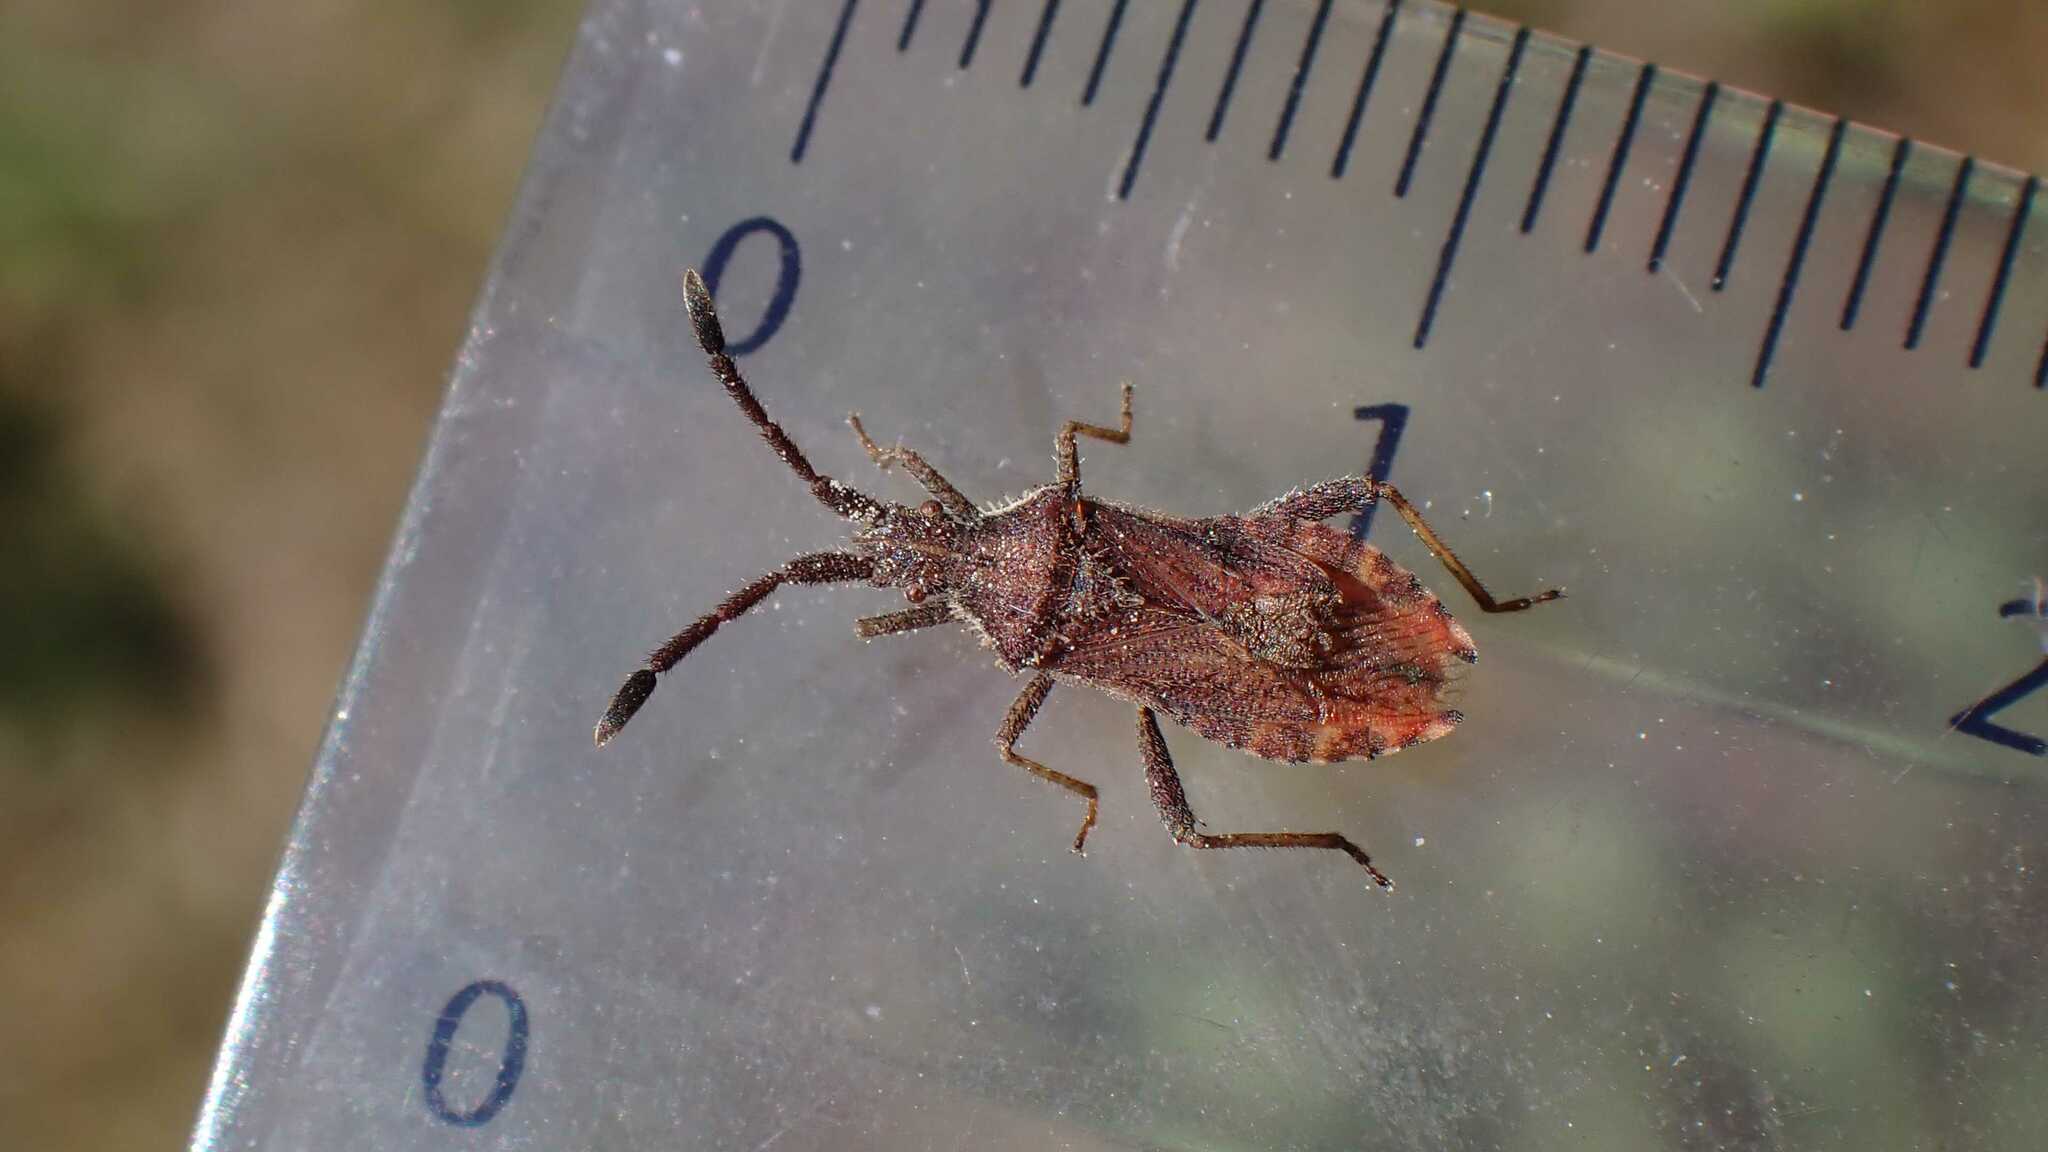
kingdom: Animalia
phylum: Arthropoda
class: Insecta
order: Hemiptera
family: Coreidae
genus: Coriomeris
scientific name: Coriomeris denticulatus
